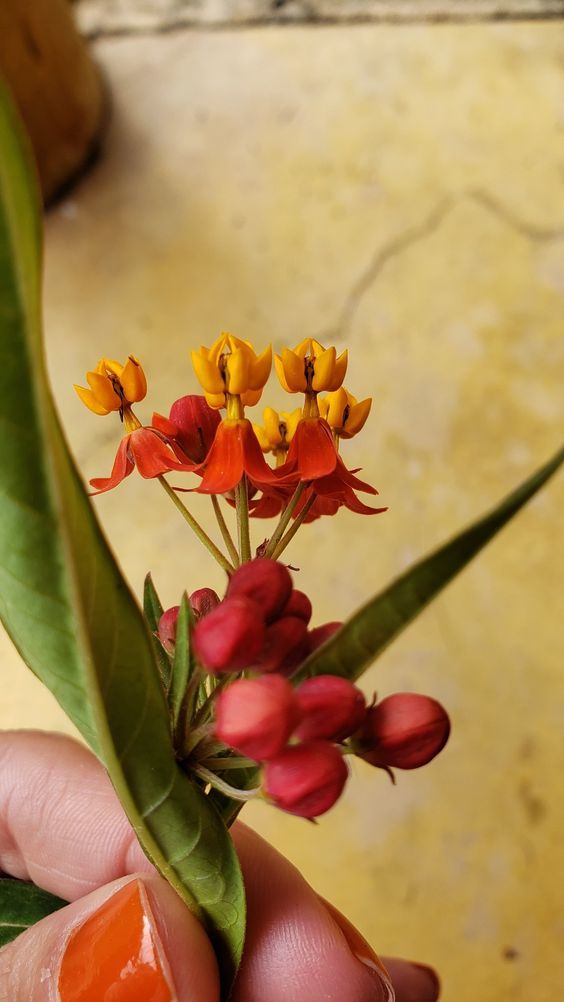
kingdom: Plantae
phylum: Tracheophyta
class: Magnoliopsida
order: Gentianales
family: Apocynaceae
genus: Asclepias
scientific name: Asclepias curassavica
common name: Bloodflower
